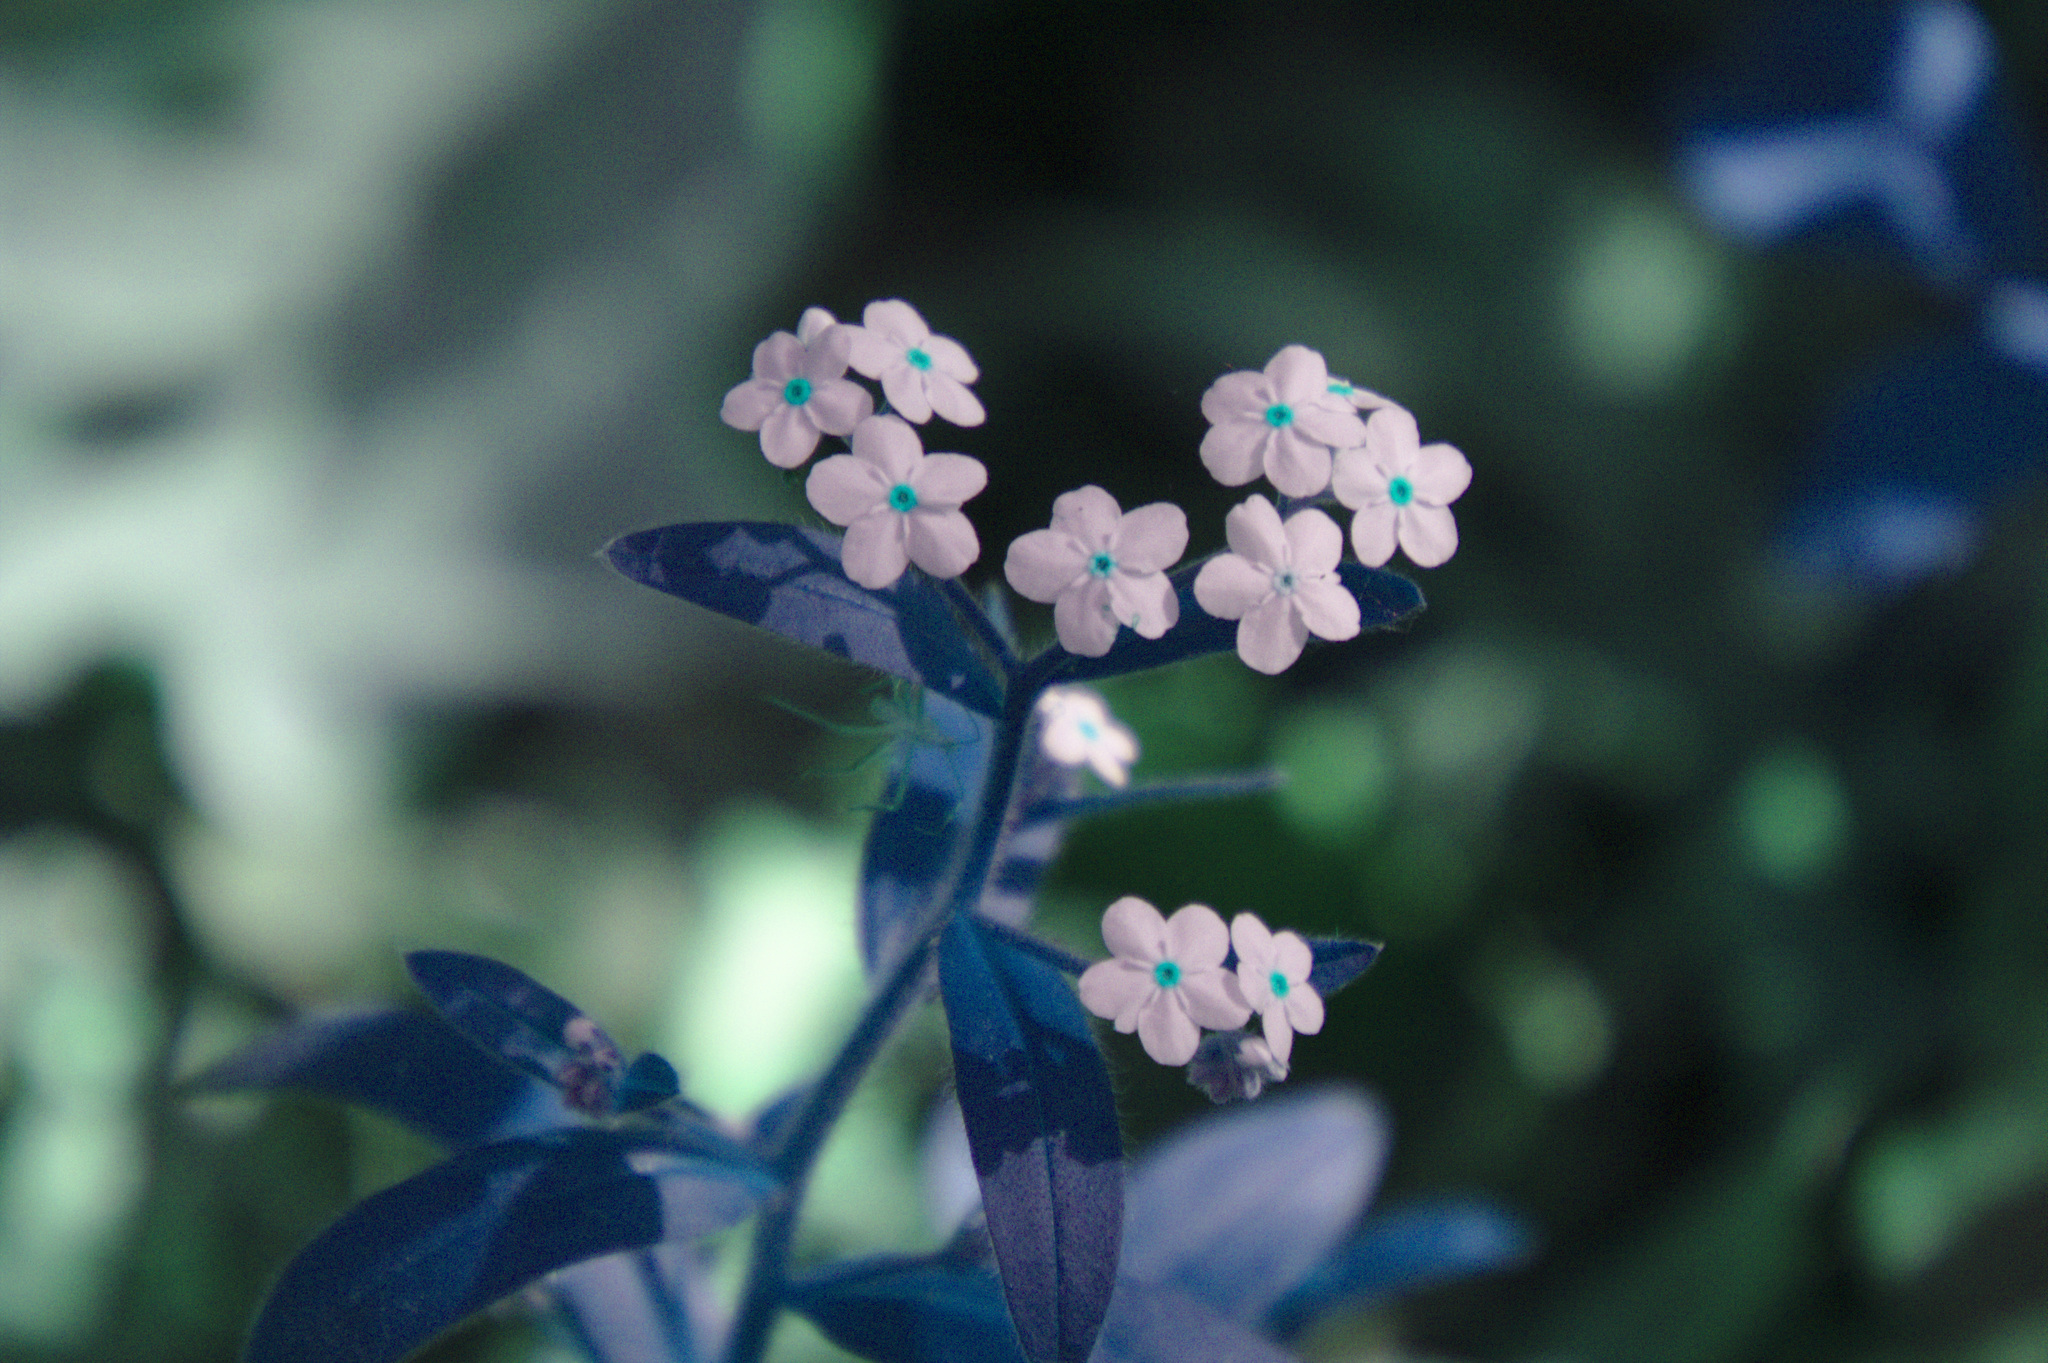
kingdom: Plantae
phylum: Tracheophyta
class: Magnoliopsida
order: Boraginales
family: Boraginaceae
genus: Myosotis
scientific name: Myosotis sylvatica
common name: Wood forget-me-not
